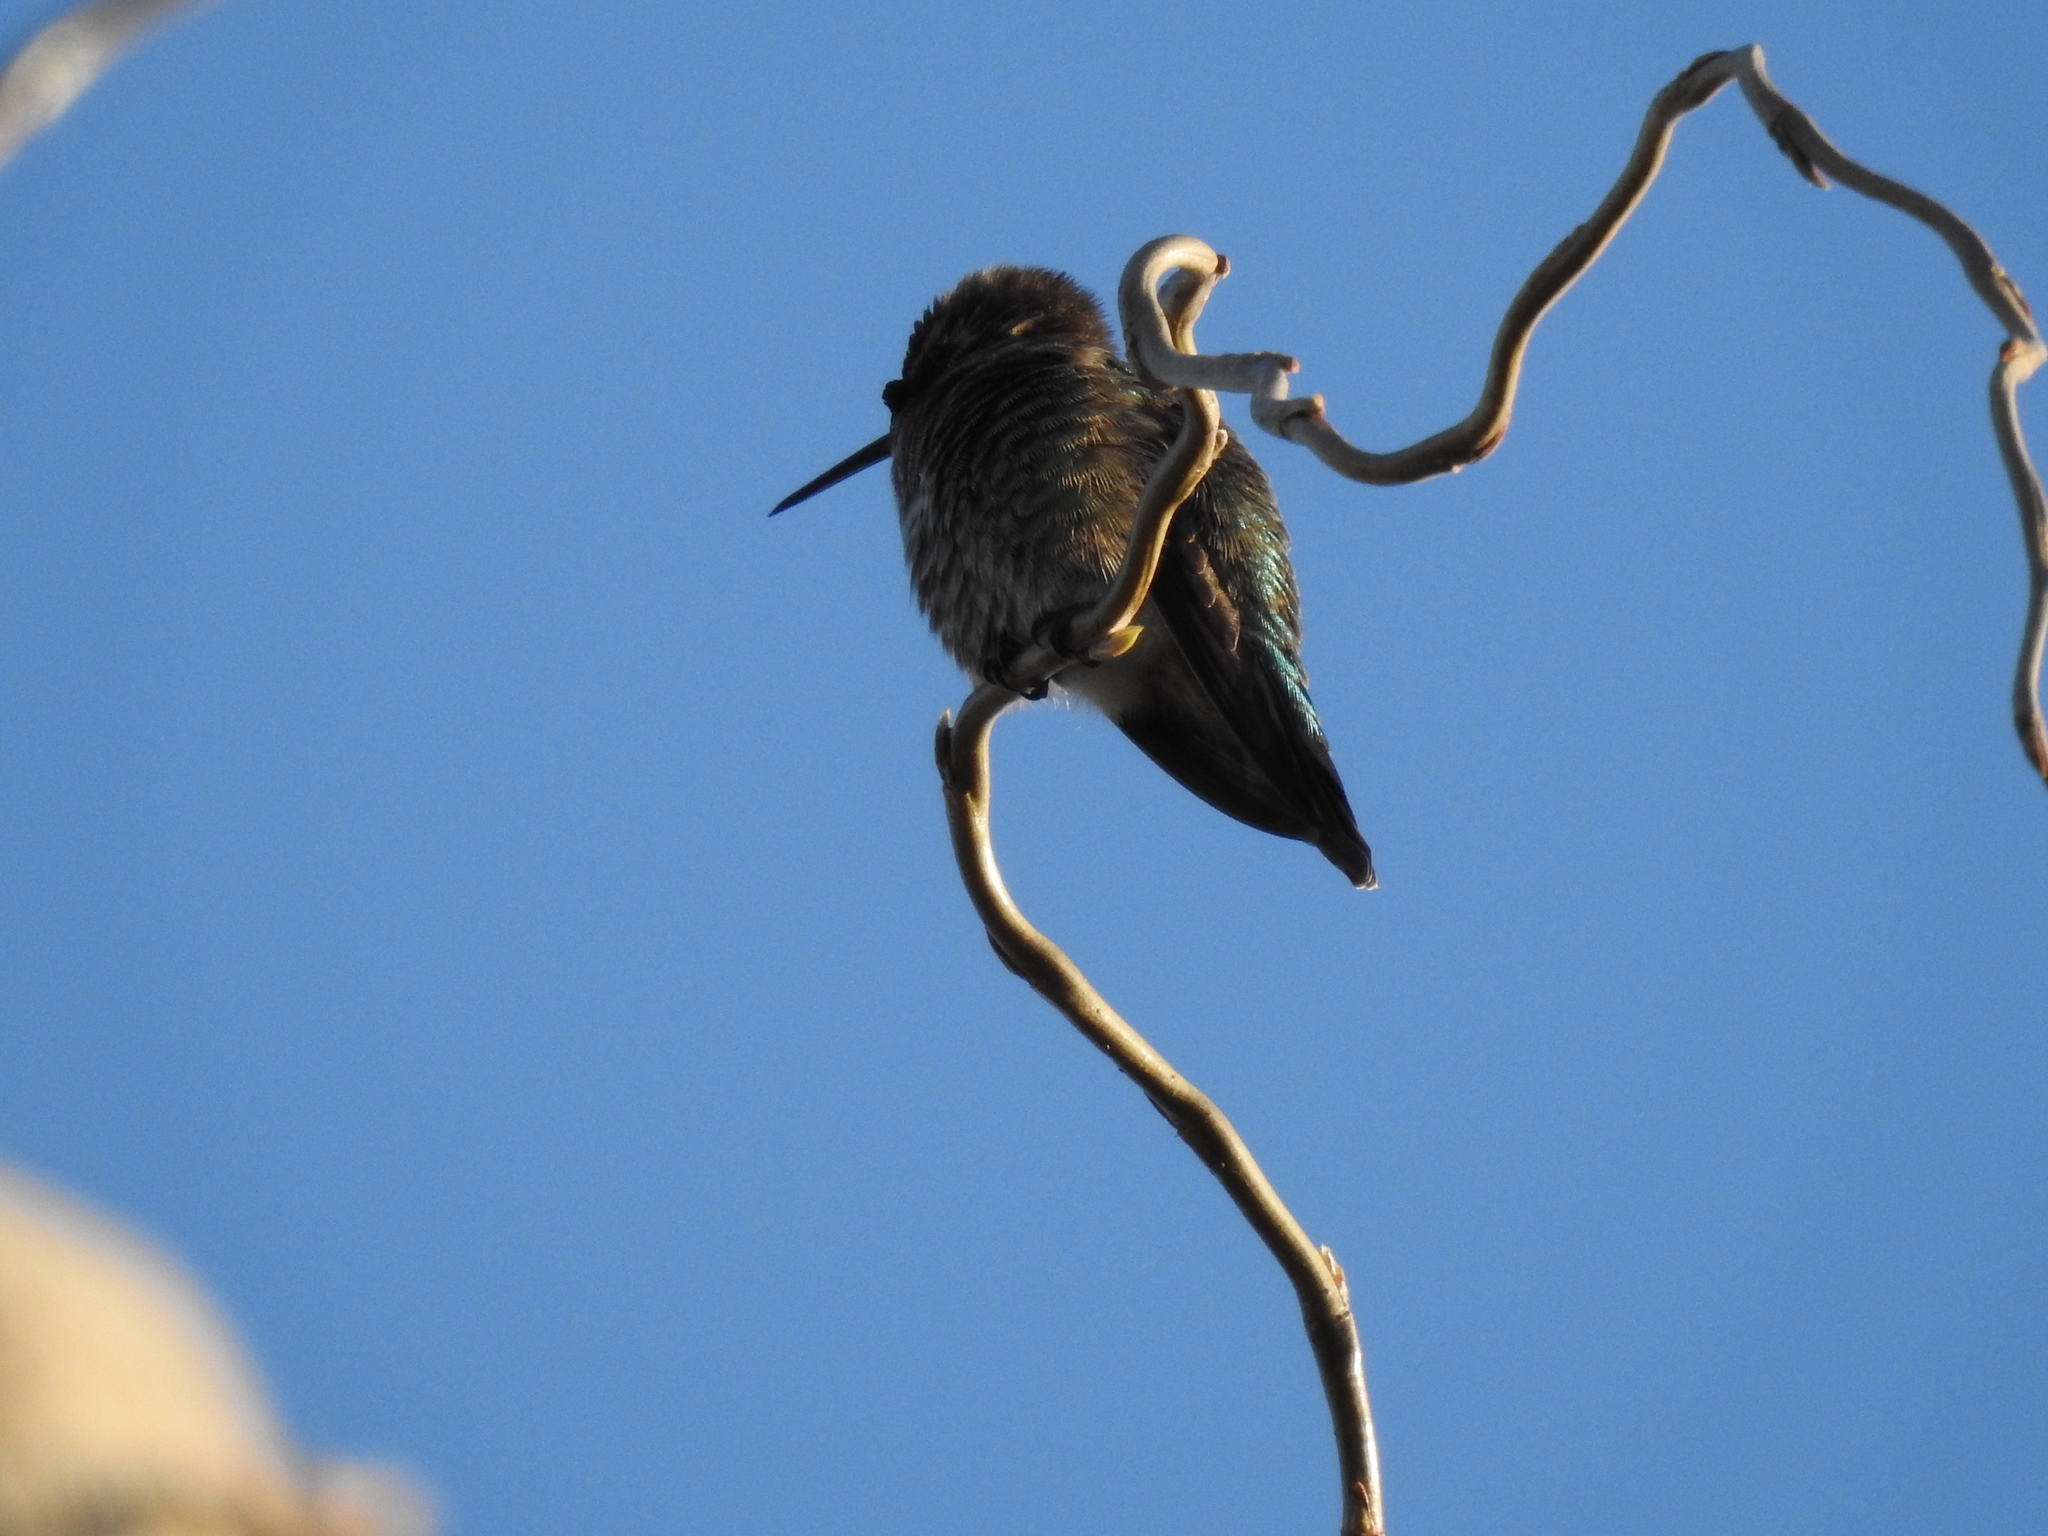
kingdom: Animalia
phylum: Chordata
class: Aves
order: Apodiformes
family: Trochilidae
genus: Calypte
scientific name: Calypte anna
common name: Anna's hummingbird
